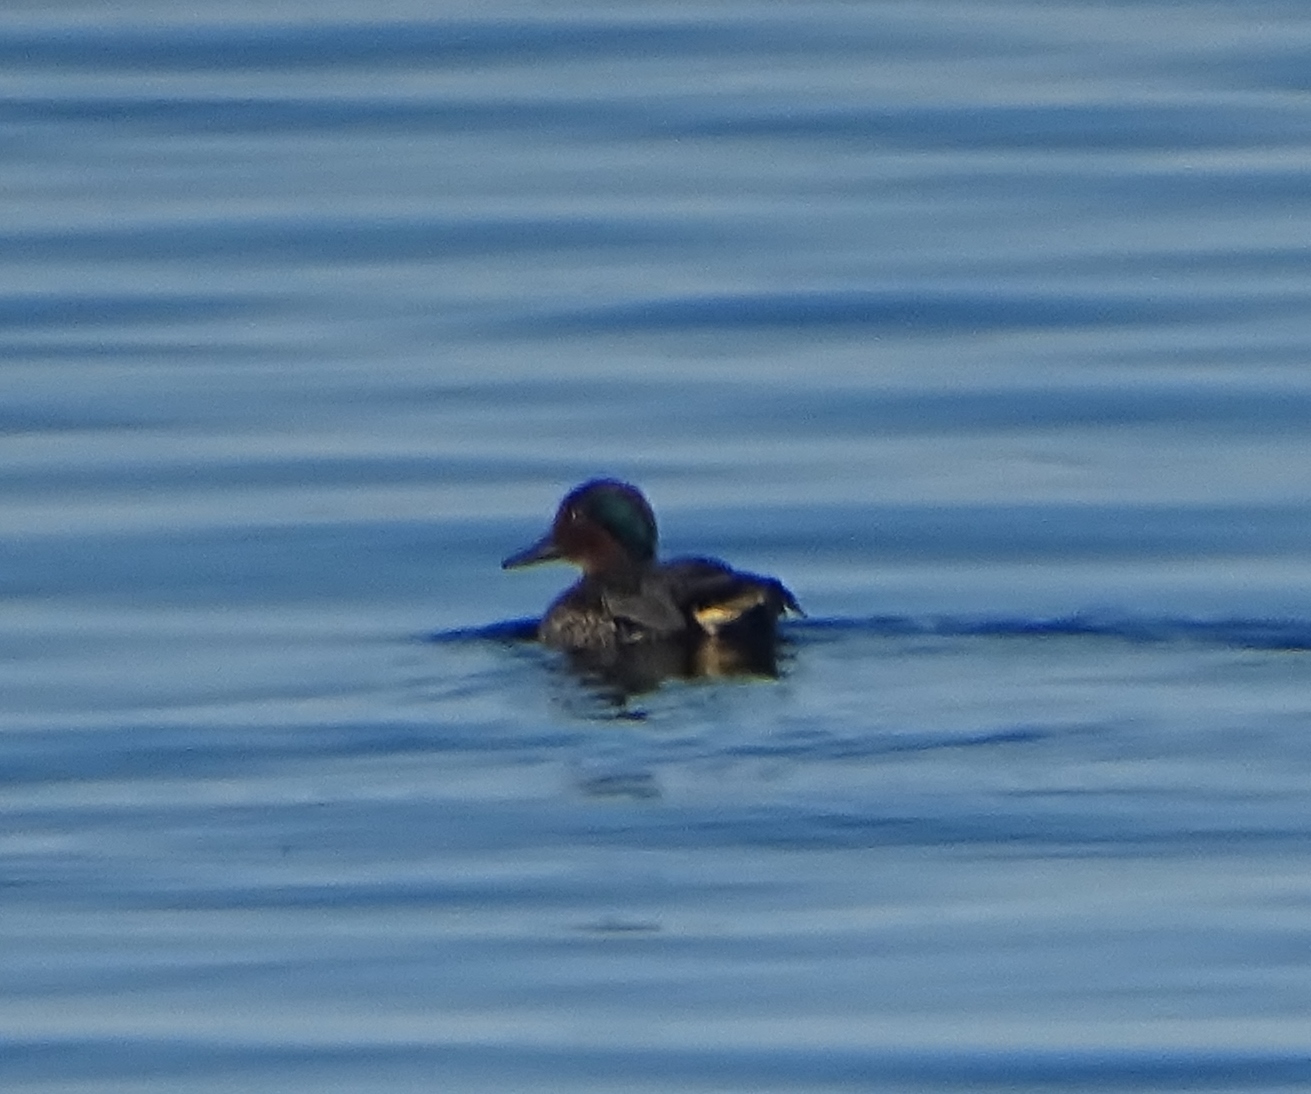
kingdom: Animalia
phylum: Chordata
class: Aves
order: Anseriformes
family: Anatidae
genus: Anas
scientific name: Anas crecca
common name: Eurasian teal
